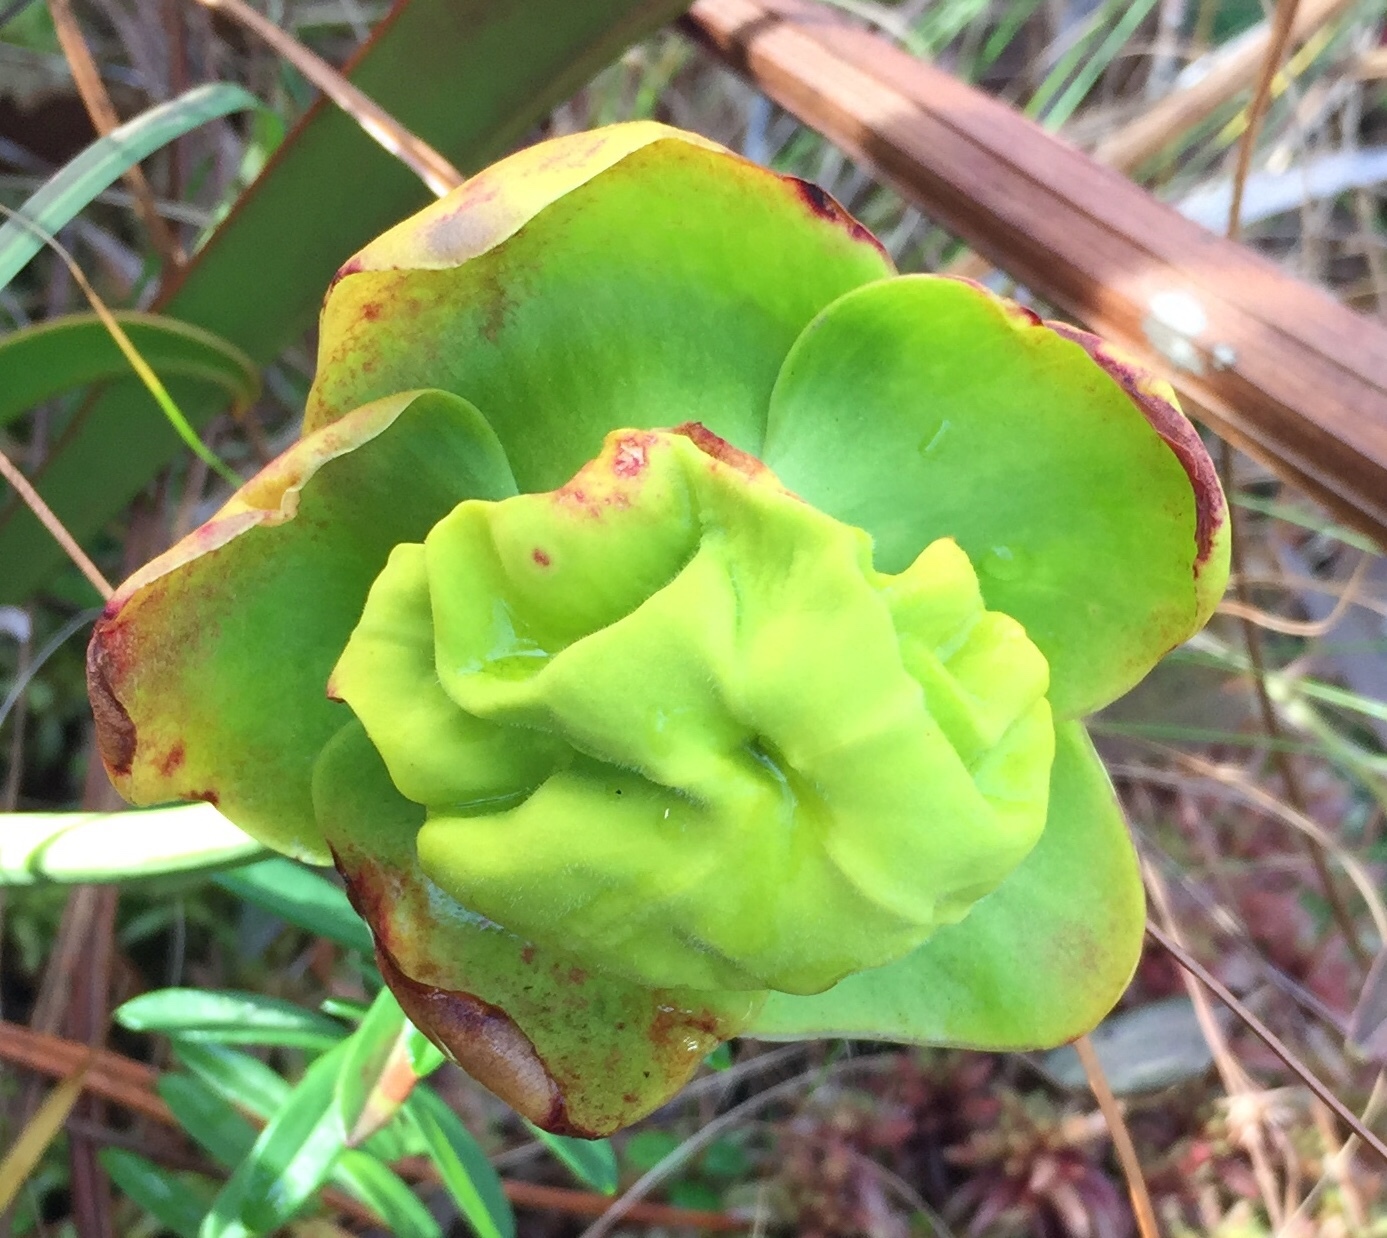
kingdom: Plantae
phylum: Tracheophyta
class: Magnoliopsida
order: Ericales
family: Sarraceniaceae
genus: Sarracenia
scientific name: Sarracenia flava
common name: Trumpets
